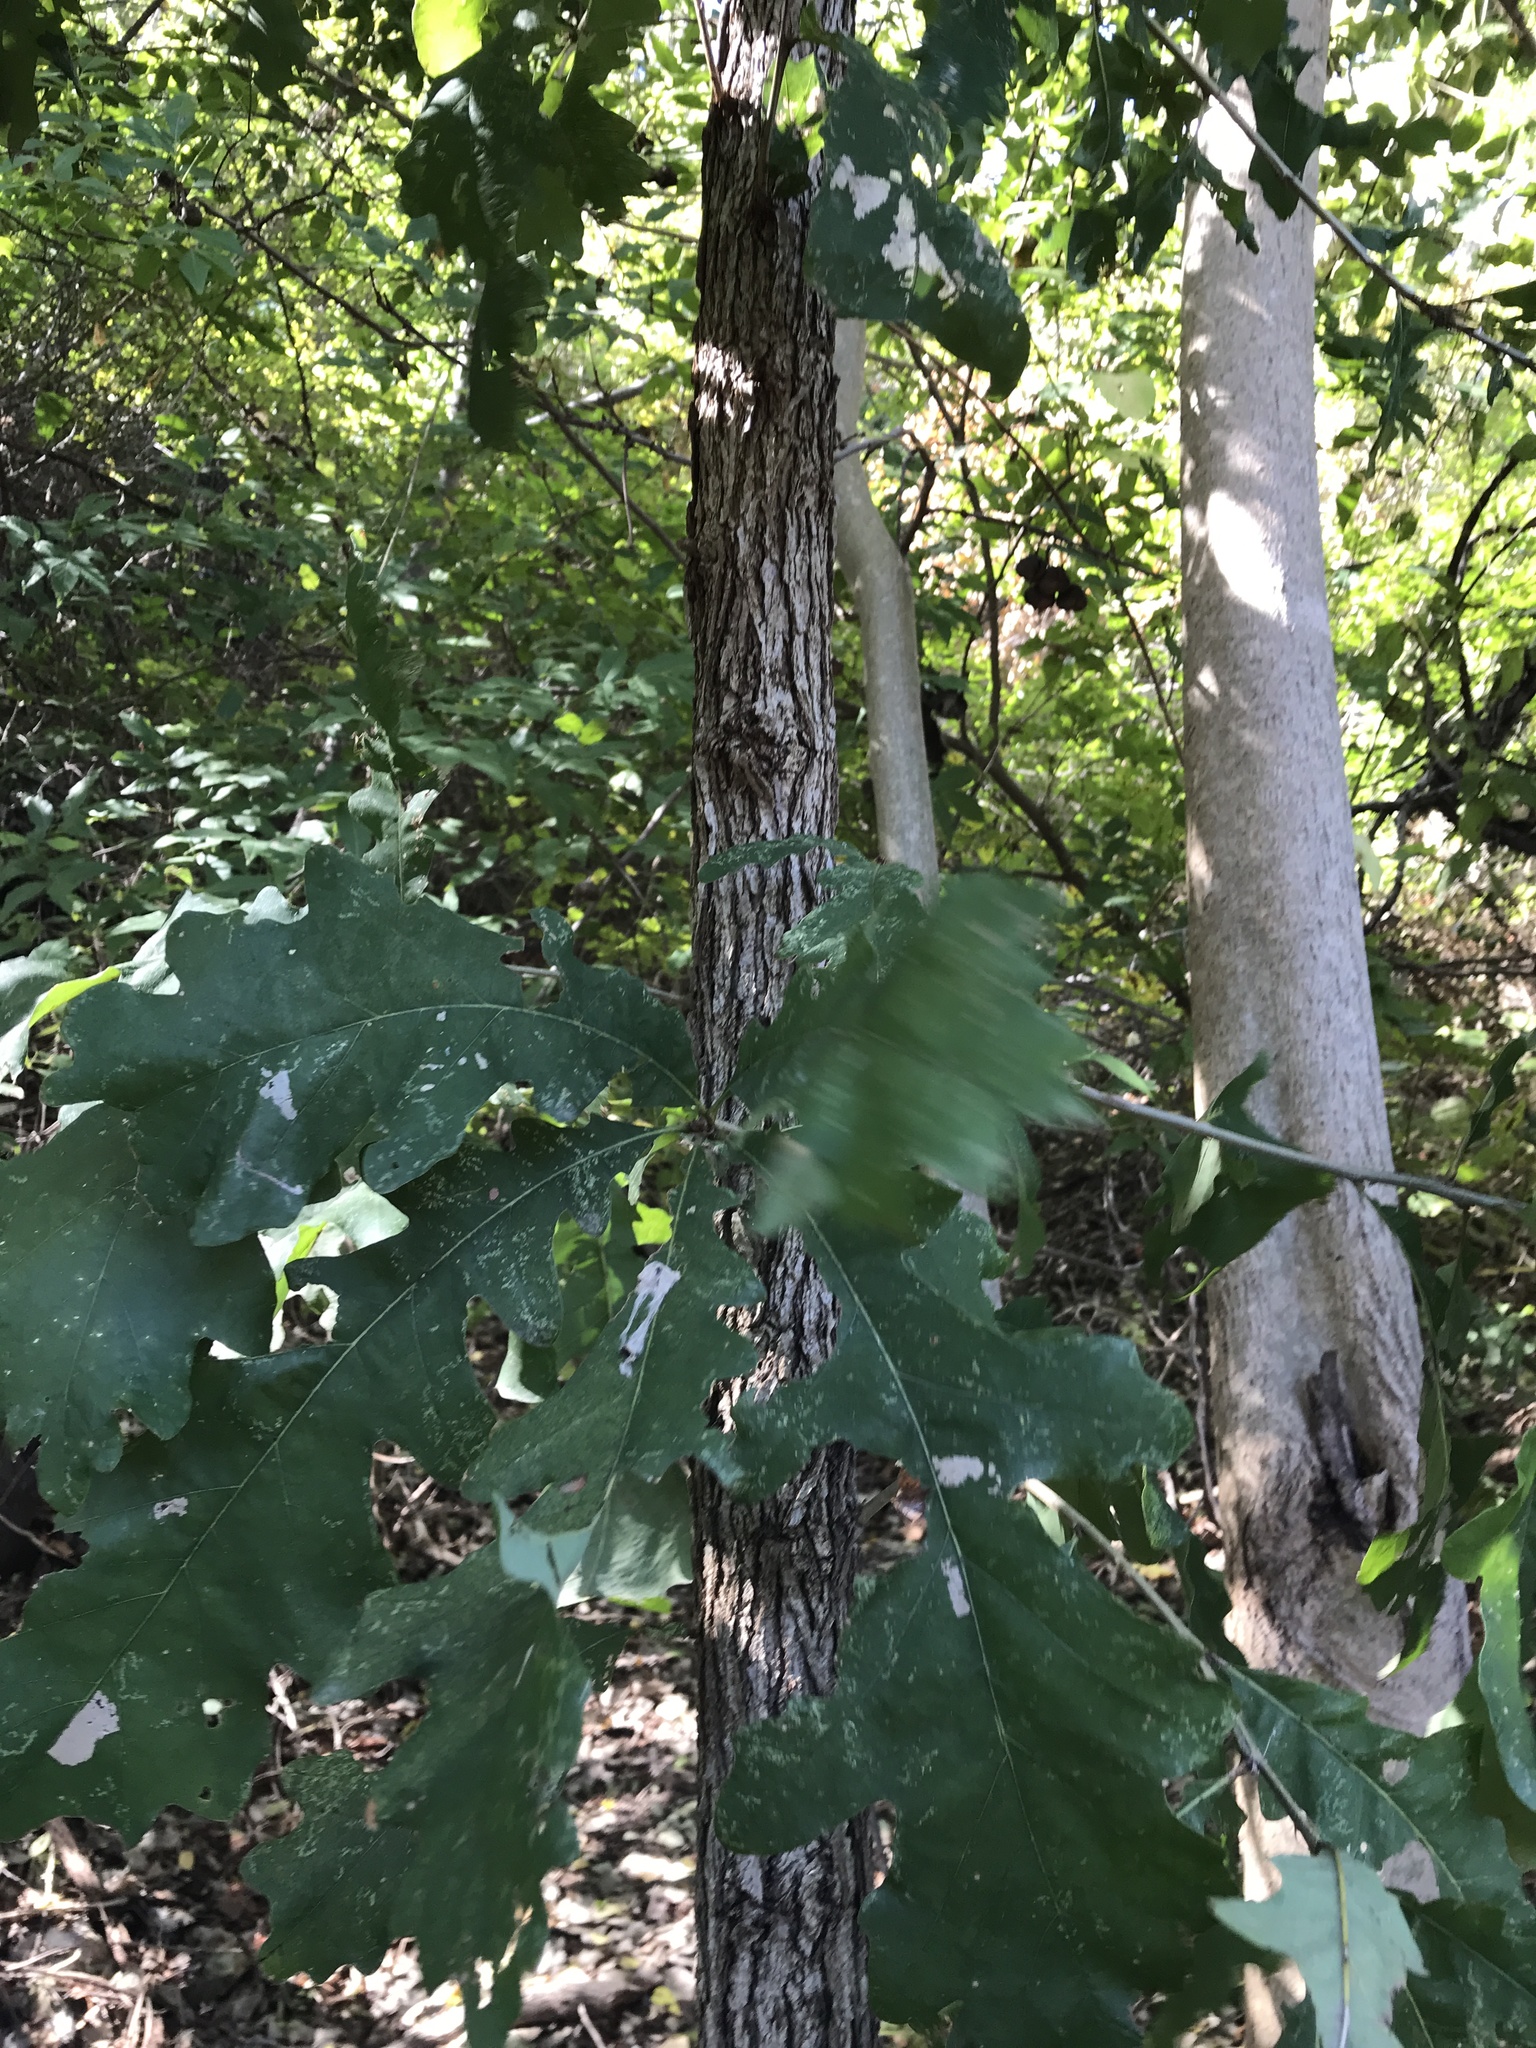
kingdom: Plantae
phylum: Tracheophyta
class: Magnoliopsida
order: Fagales
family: Fagaceae
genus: Quercus
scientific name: Quercus macrocarpa
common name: Bur oak
